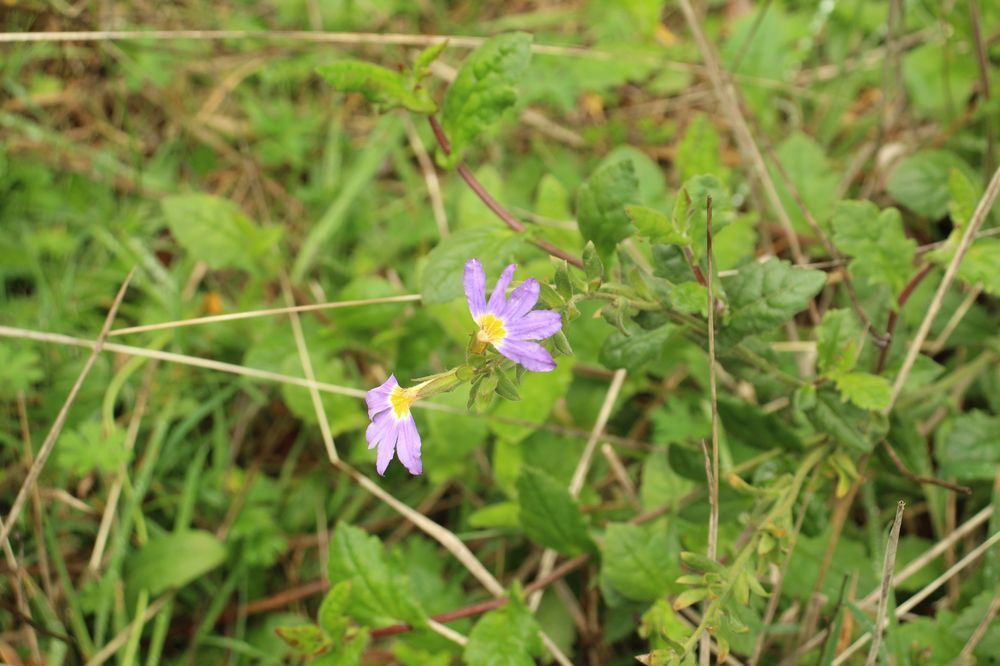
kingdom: Plantae
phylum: Tracheophyta
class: Magnoliopsida
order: Asterales
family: Goodeniaceae
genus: Scaevola
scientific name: Scaevola microphylla
